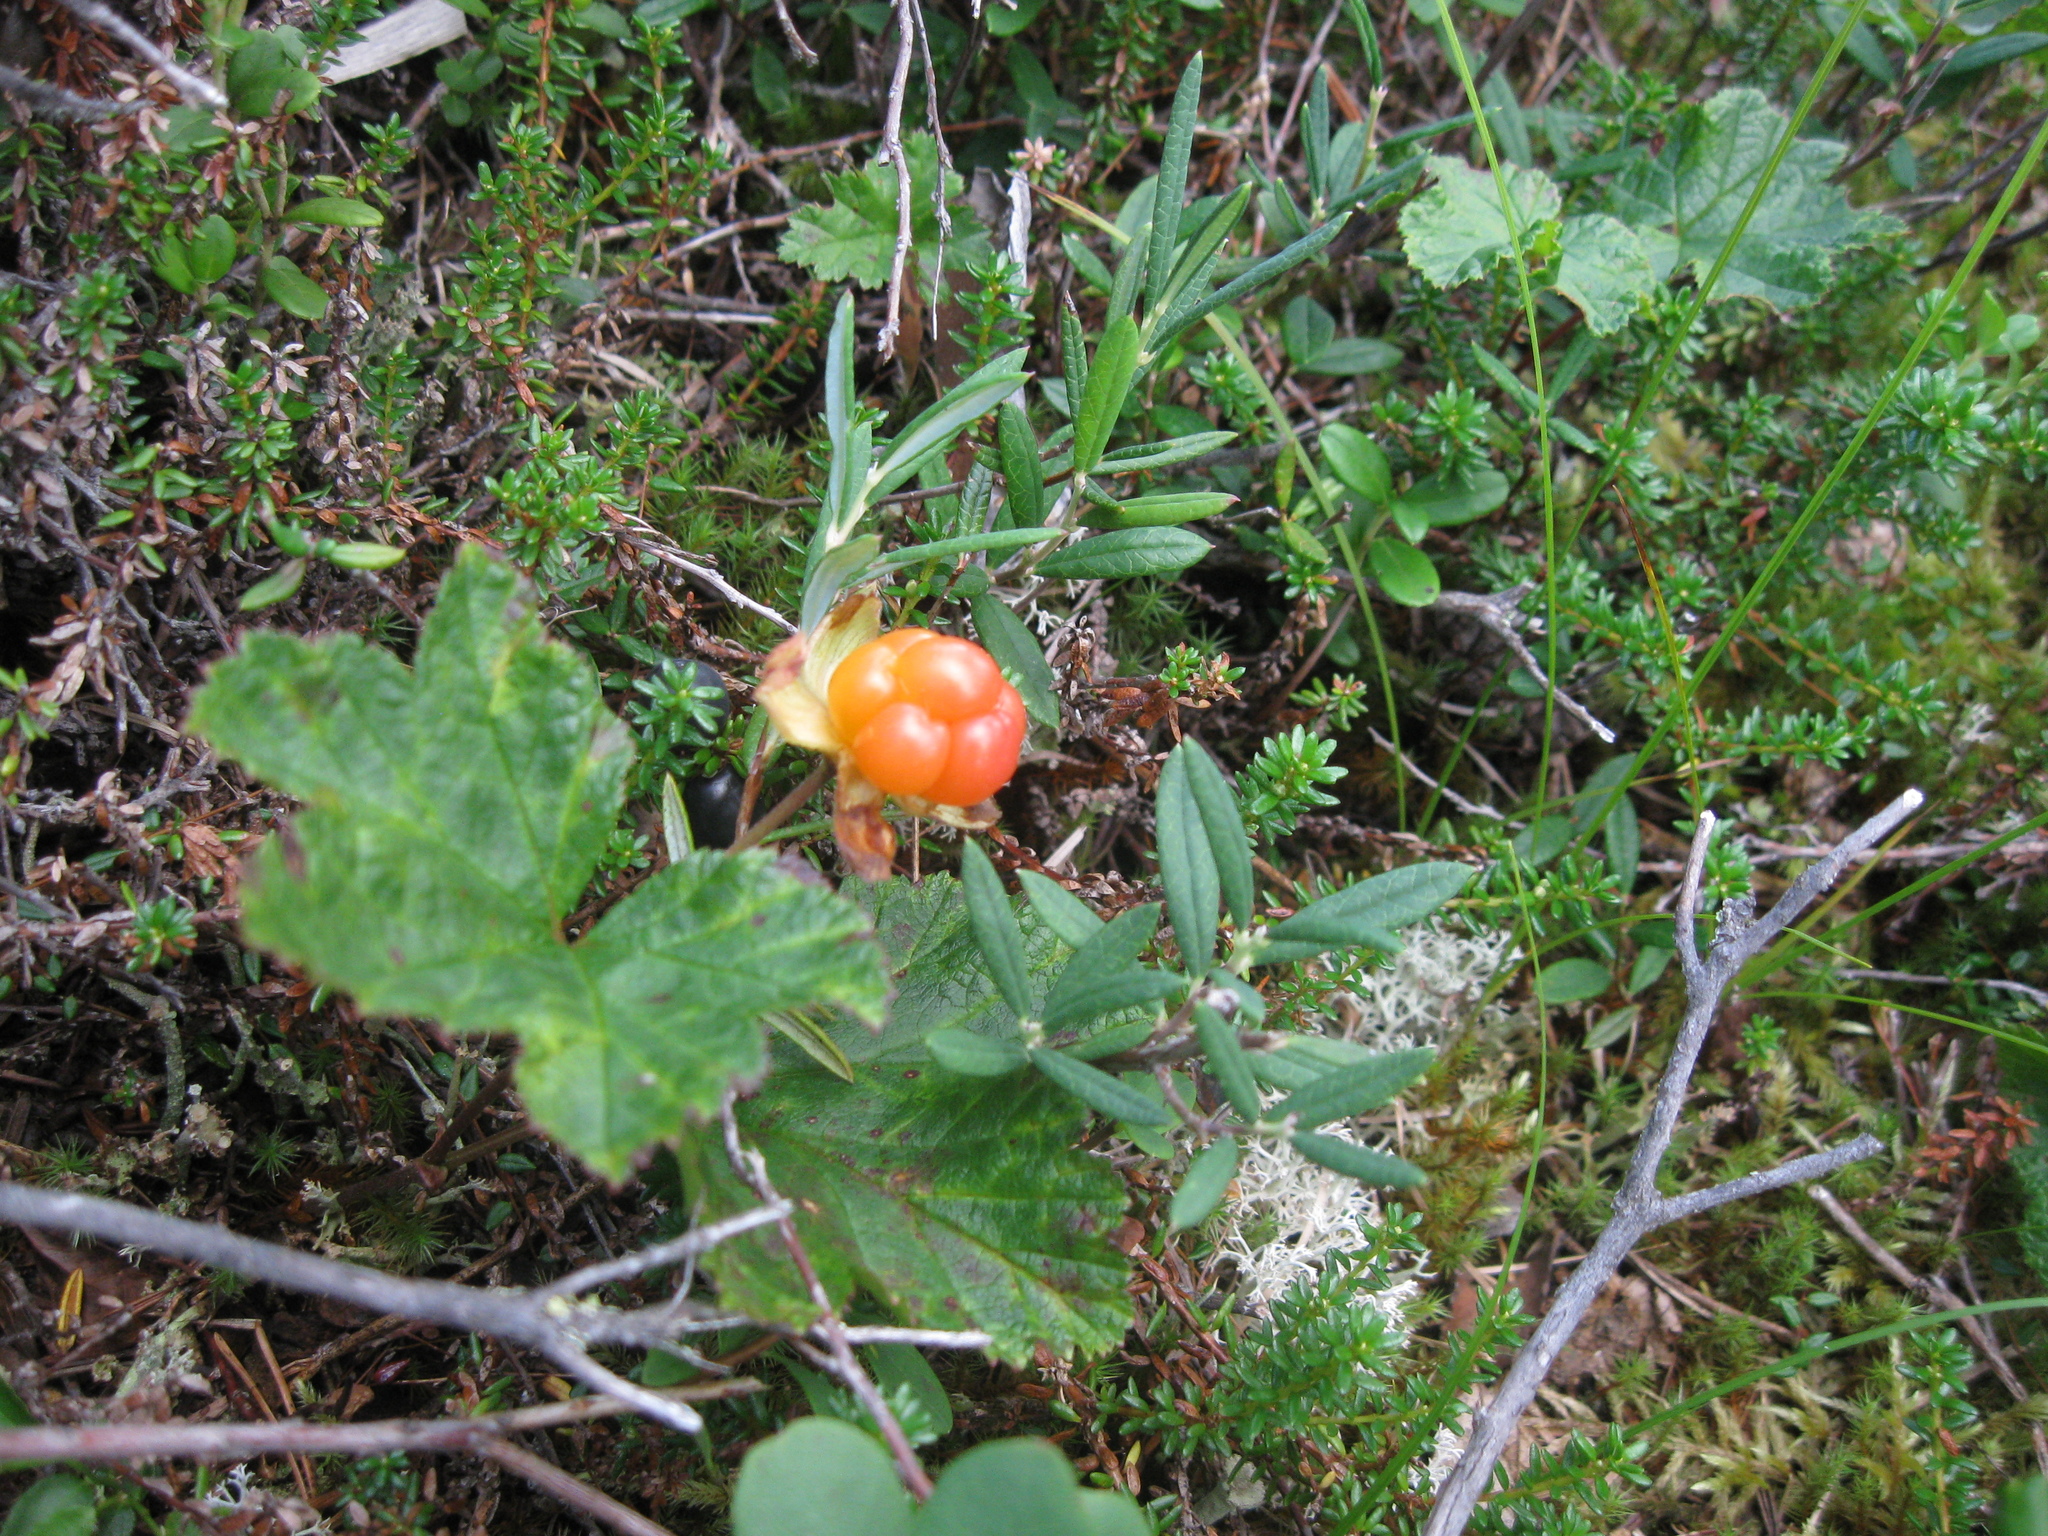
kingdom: Plantae
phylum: Tracheophyta
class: Magnoliopsida
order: Rosales
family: Rosaceae
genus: Rubus
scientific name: Rubus chamaemorus
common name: Cloudberry
